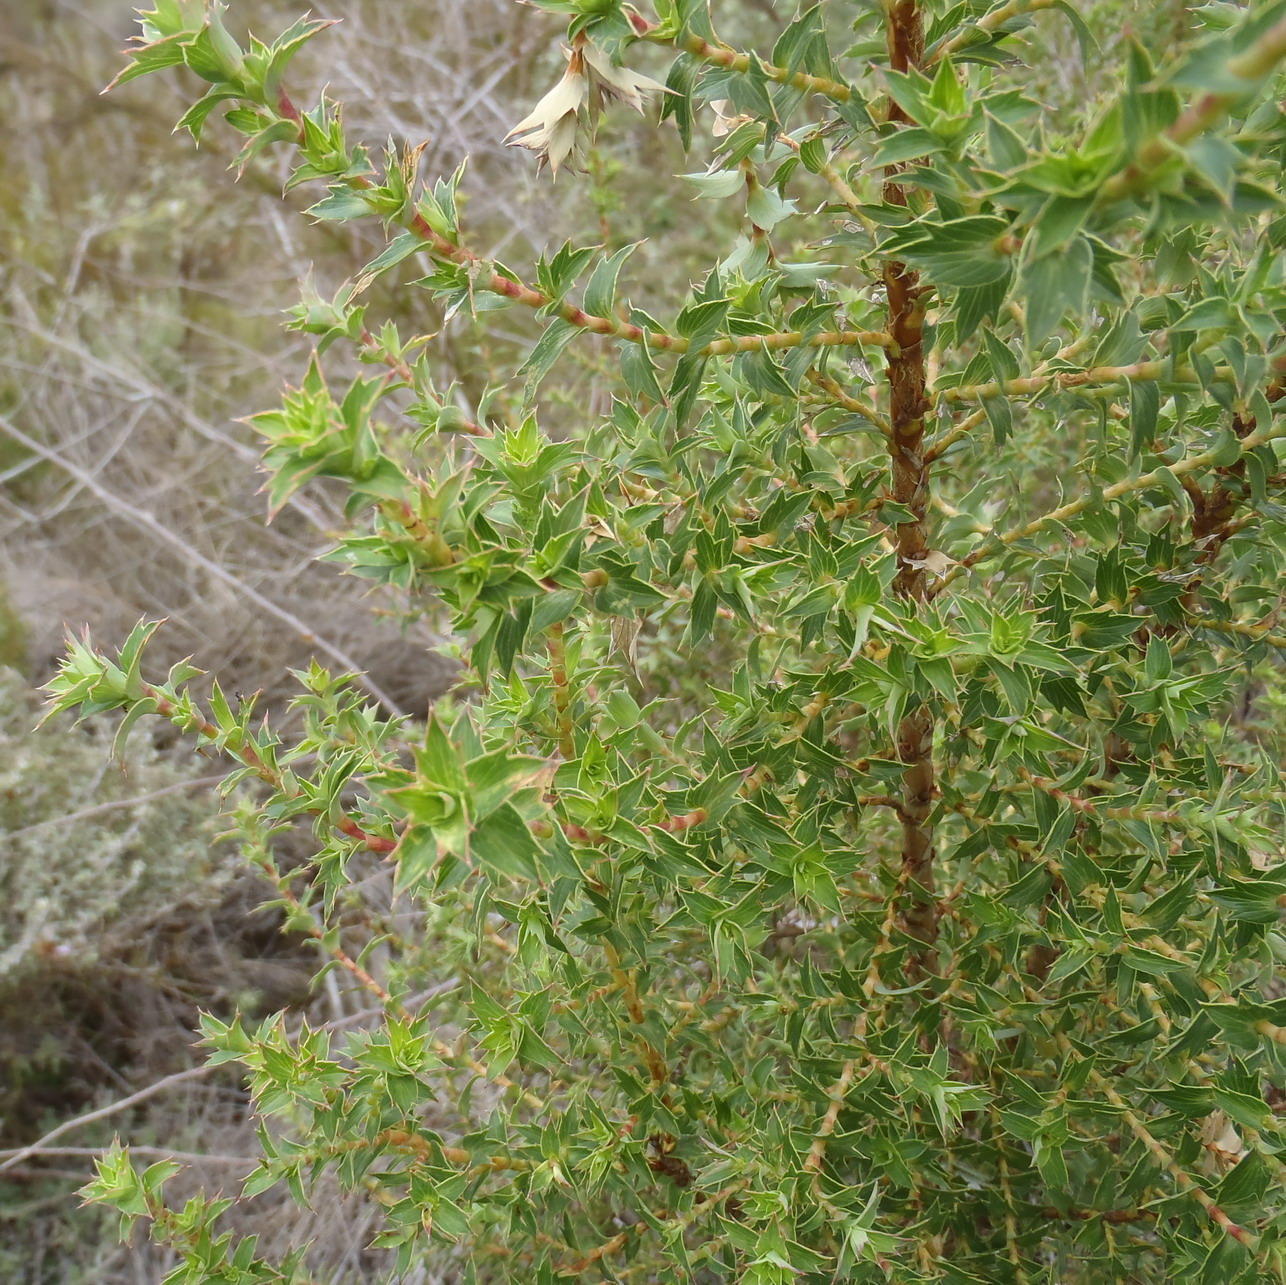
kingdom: Plantae
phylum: Tracheophyta
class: Magnoliopsida
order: Rosales
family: Rosaceae
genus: Cliffortia
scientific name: Cliffortia ilicifolia
